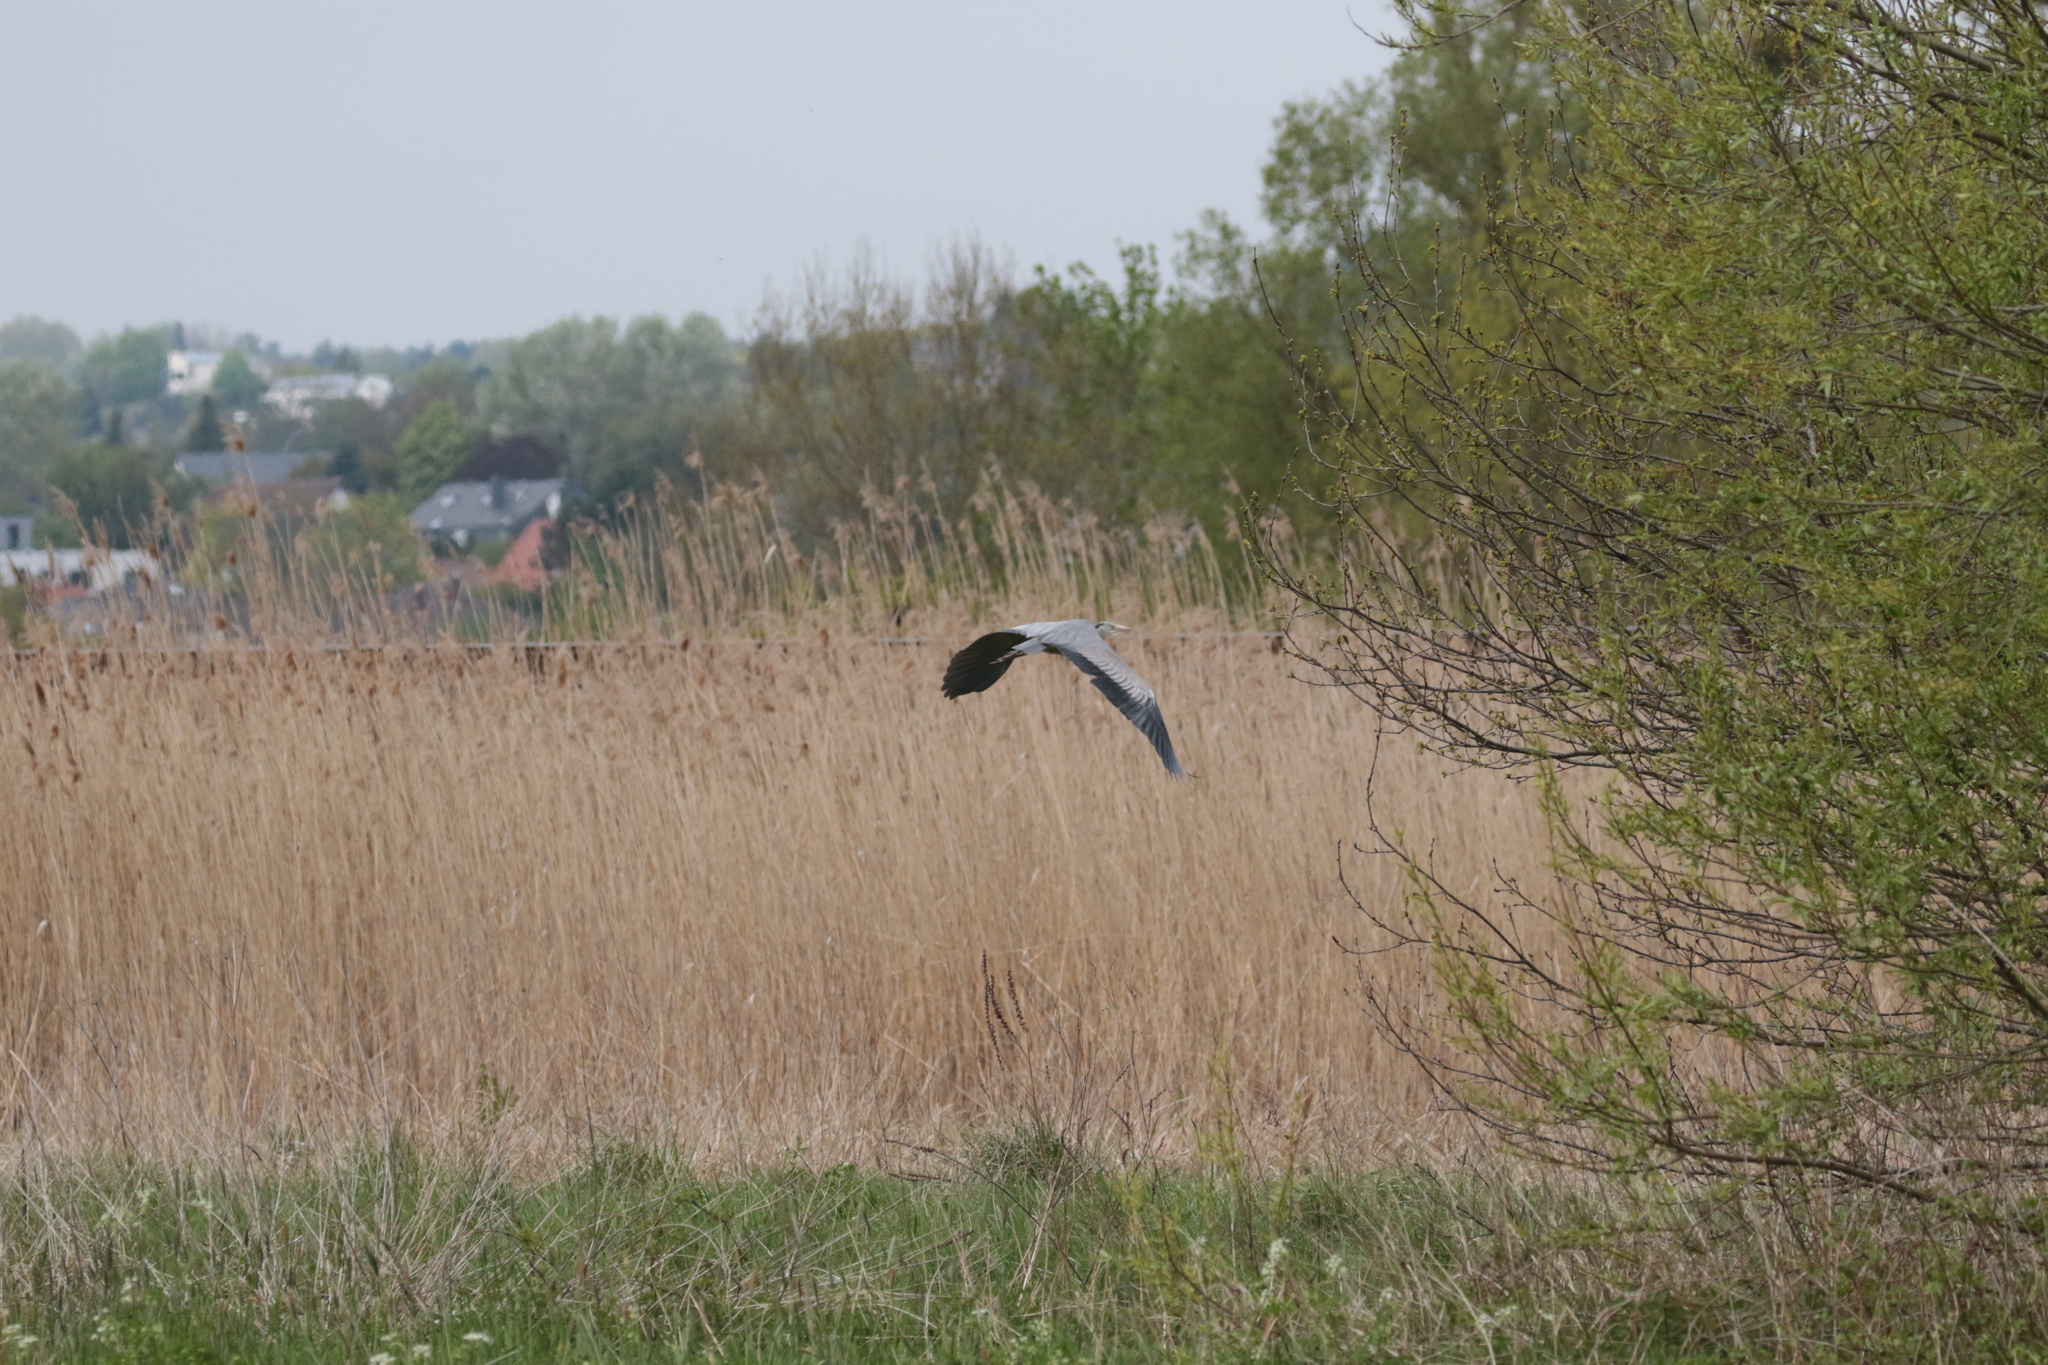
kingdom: Animalia
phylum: Chordata
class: Aves
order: Pelecaniformes
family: Ardeidae
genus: Ardea
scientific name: Ardea cinerea
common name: Grey heron
